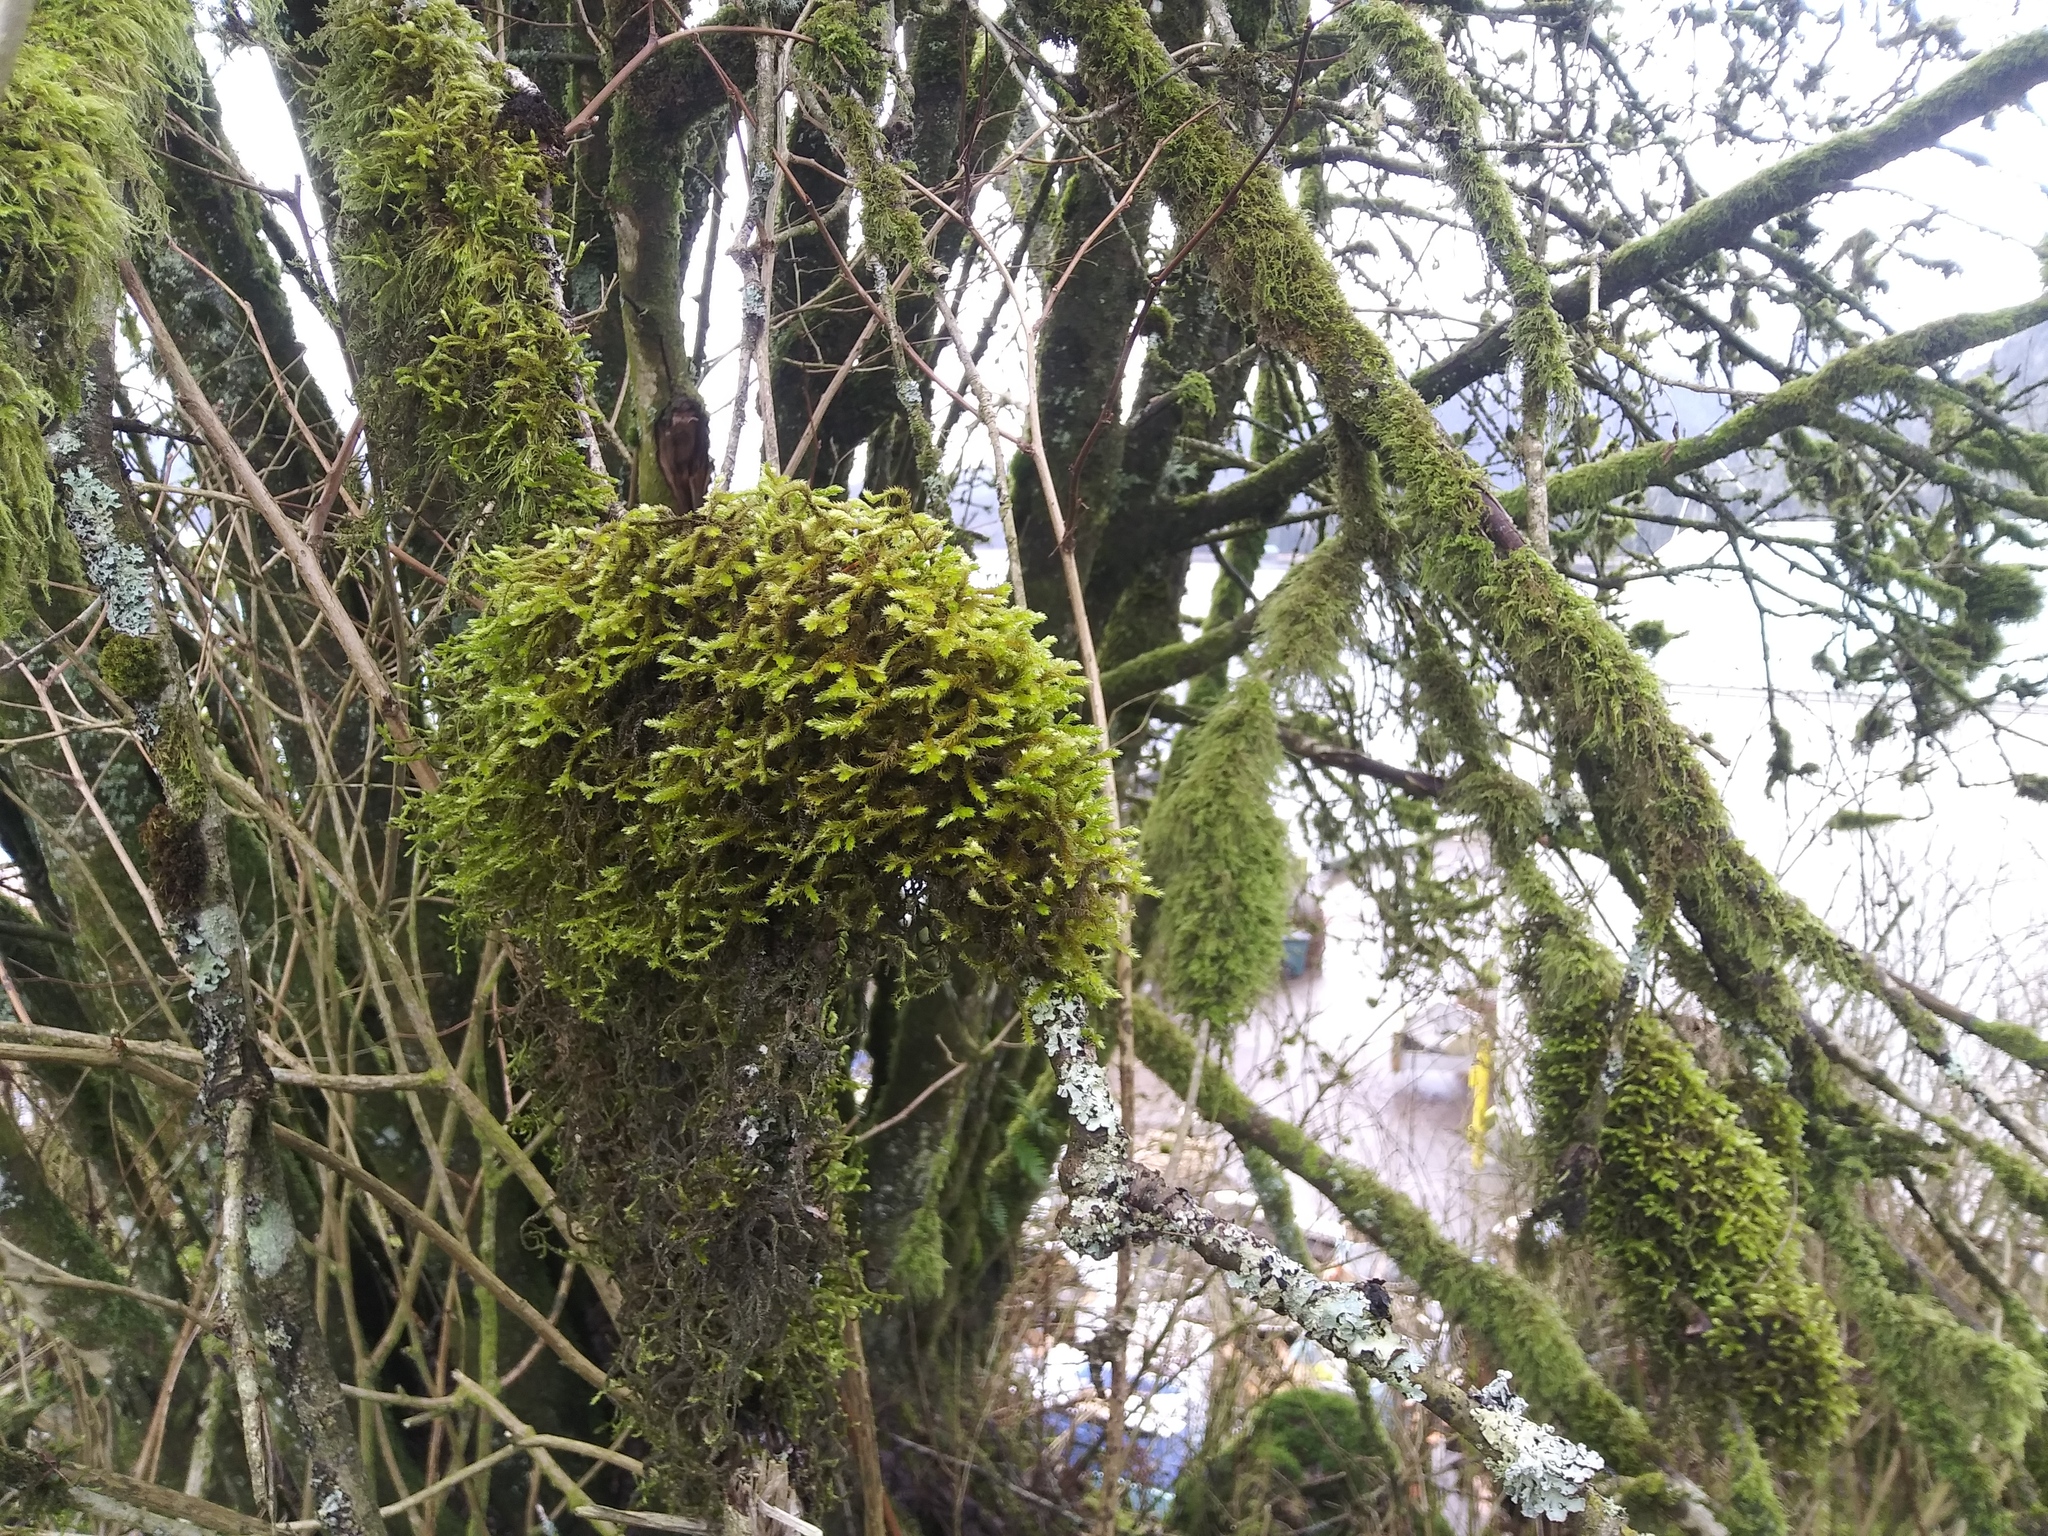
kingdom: Plantae
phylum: Bryophyta
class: Bryopsida
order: Hypnales
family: Antitrichiaceae
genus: Antitrichia
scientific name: Antitrichia curtipendula
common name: Pendulous wing-moss
